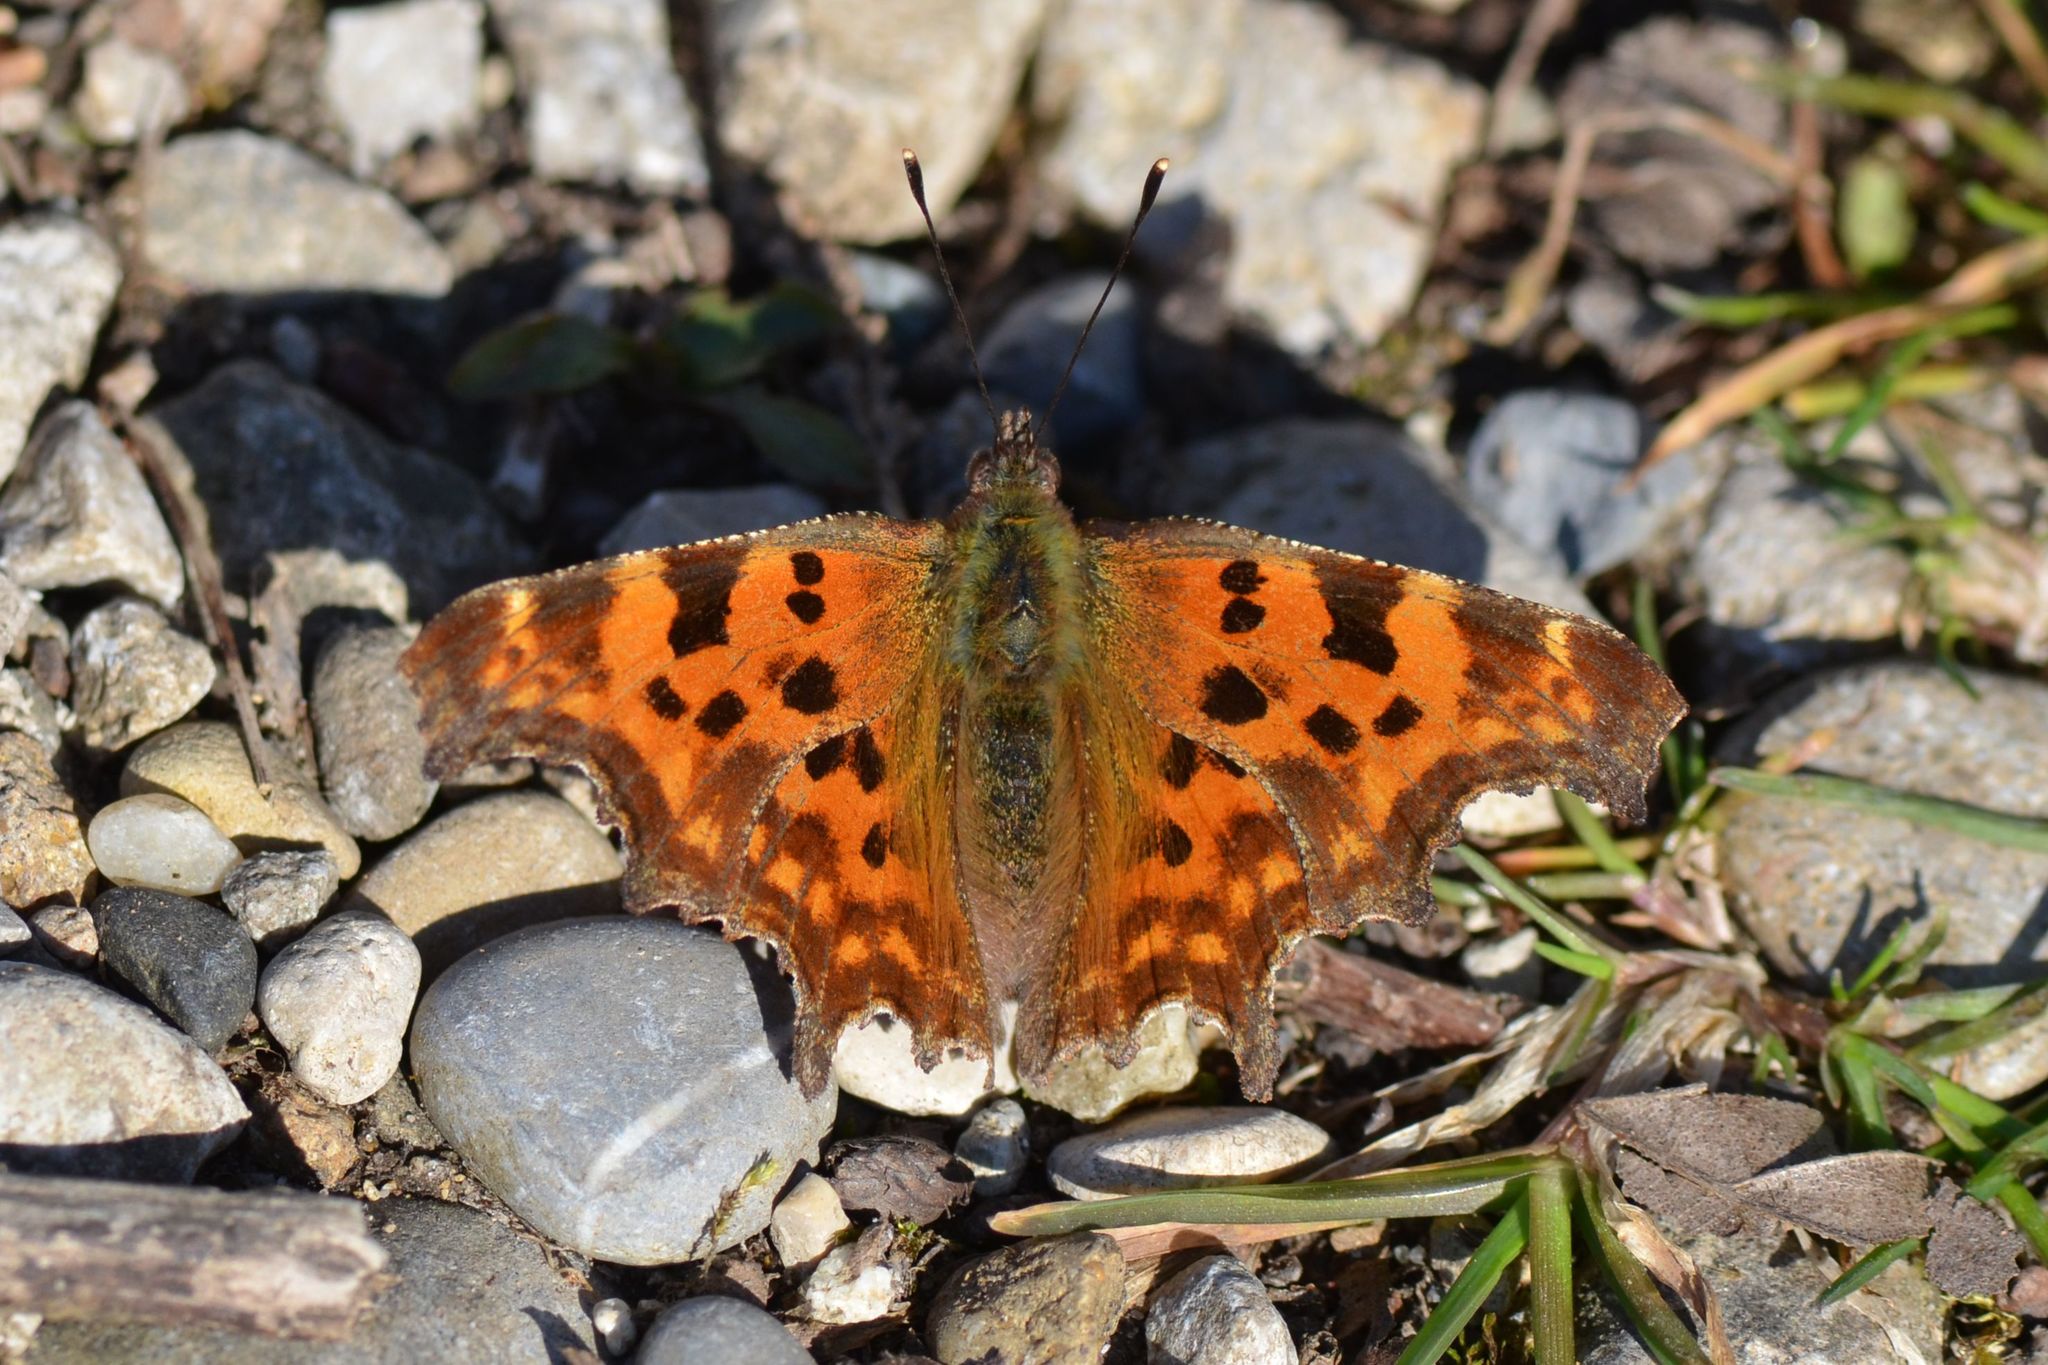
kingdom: Animalia
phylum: Arthropoda
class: Insecta
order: Lepidoptera
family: Nymphalidae
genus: Polygonia
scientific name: Polygonia c-album
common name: Comma
